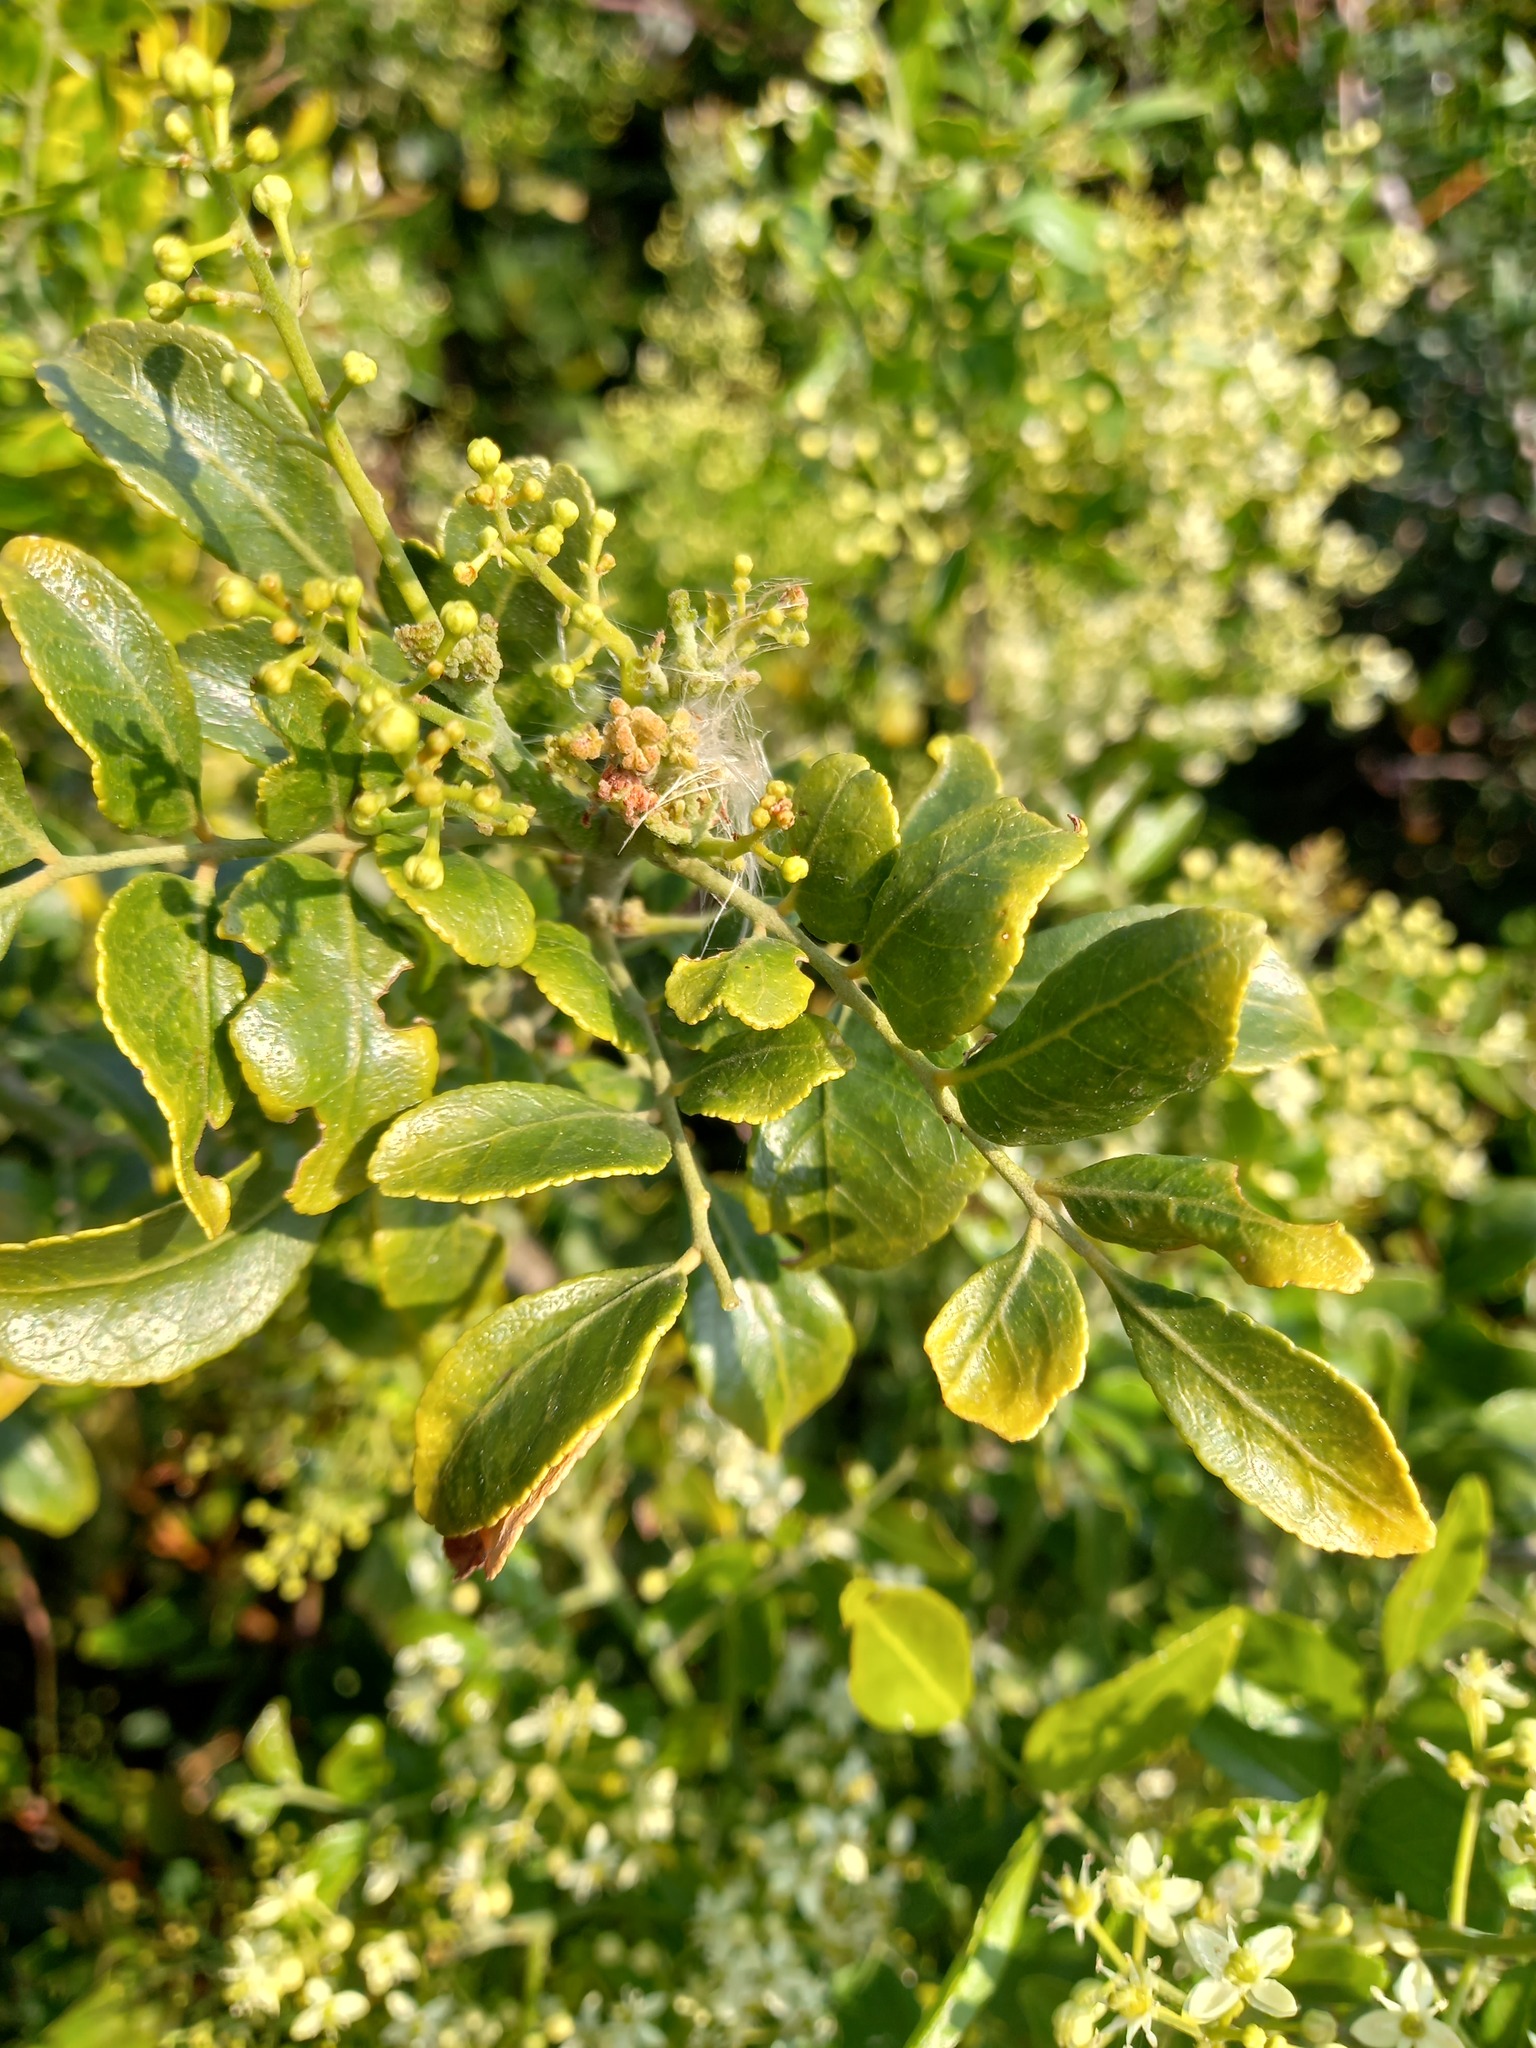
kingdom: Plantae
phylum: Tracheophyta
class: Magnoliopsida
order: Sapindales
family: Rutaceae
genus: Clausena
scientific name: Clausena anisata
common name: Horsewood
